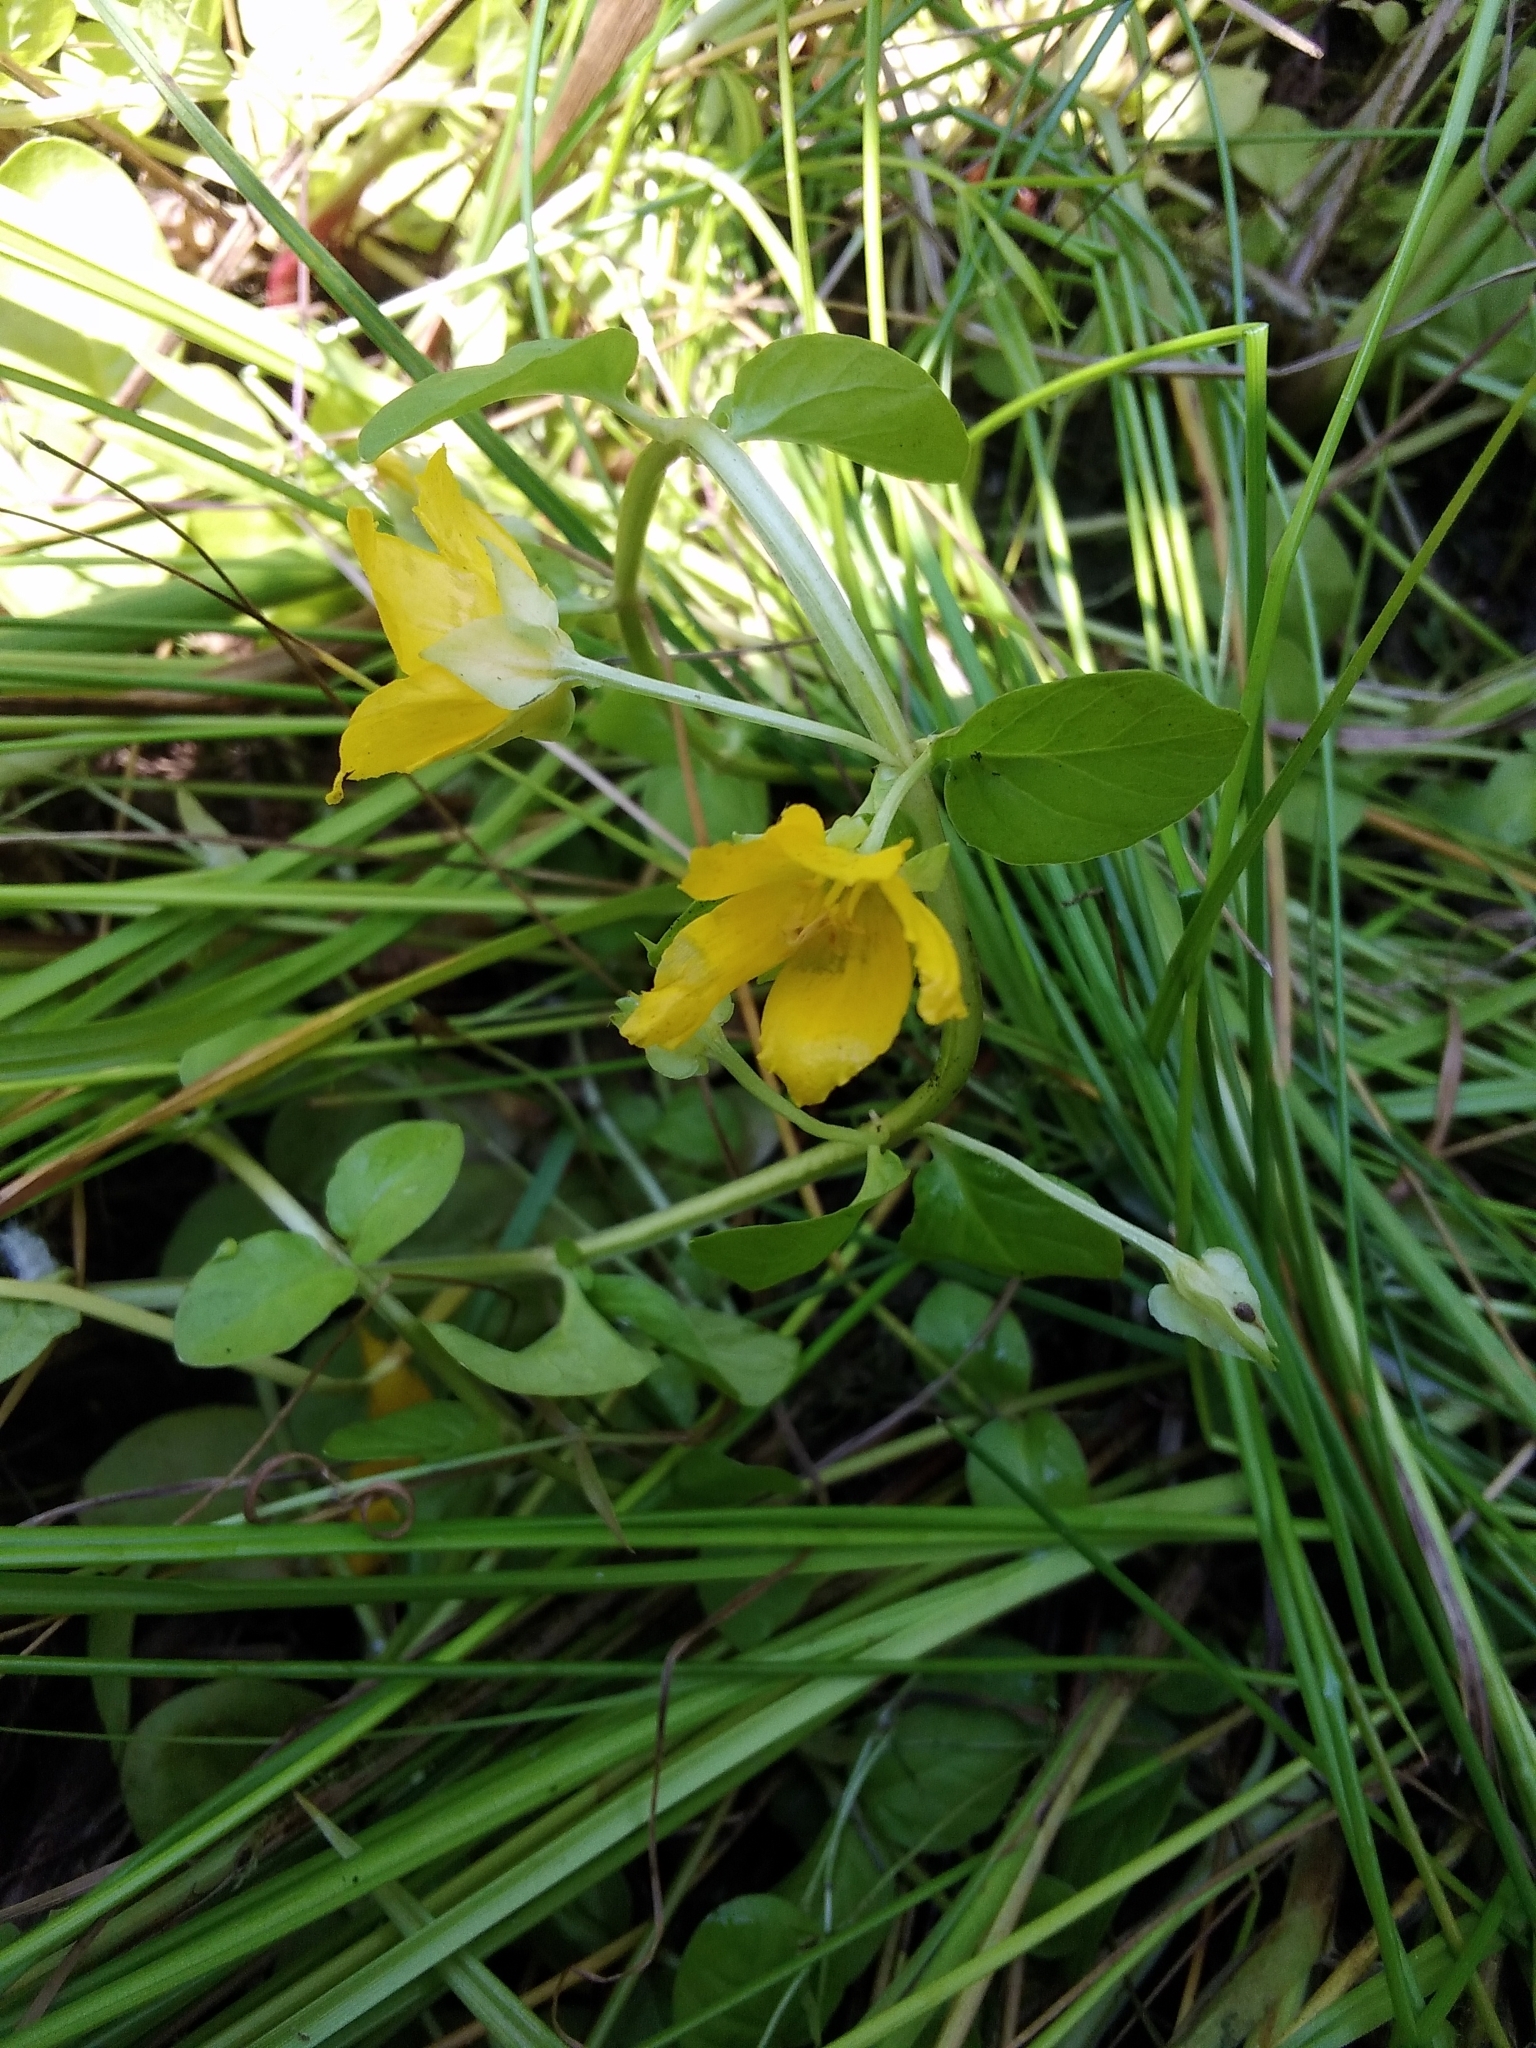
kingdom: Plantae
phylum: Tracheophyta
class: Magnoliopsida
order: Ericales
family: Primulaceae
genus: Lysimachia
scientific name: Lysimachia nummularia
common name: Moneywort
